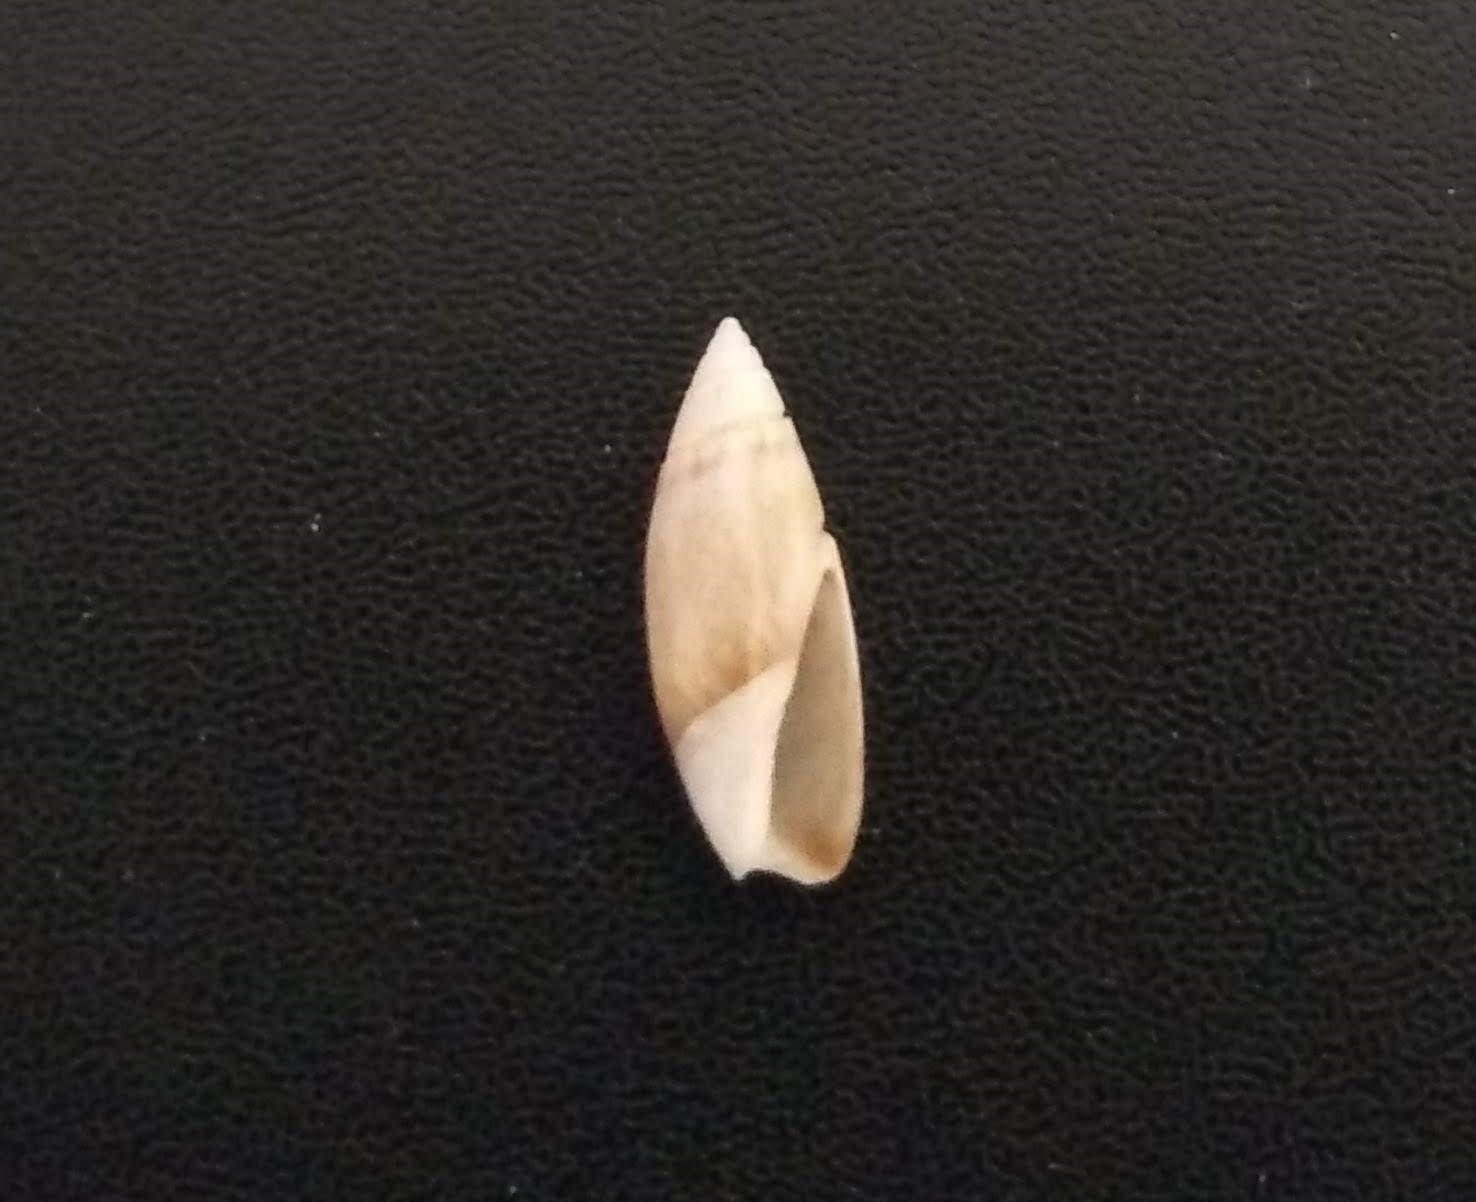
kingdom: Animalia
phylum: Mollusca
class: Gastropoda
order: Neogastropoda
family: Olividae
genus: Olivella
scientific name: Olivella defiorei
